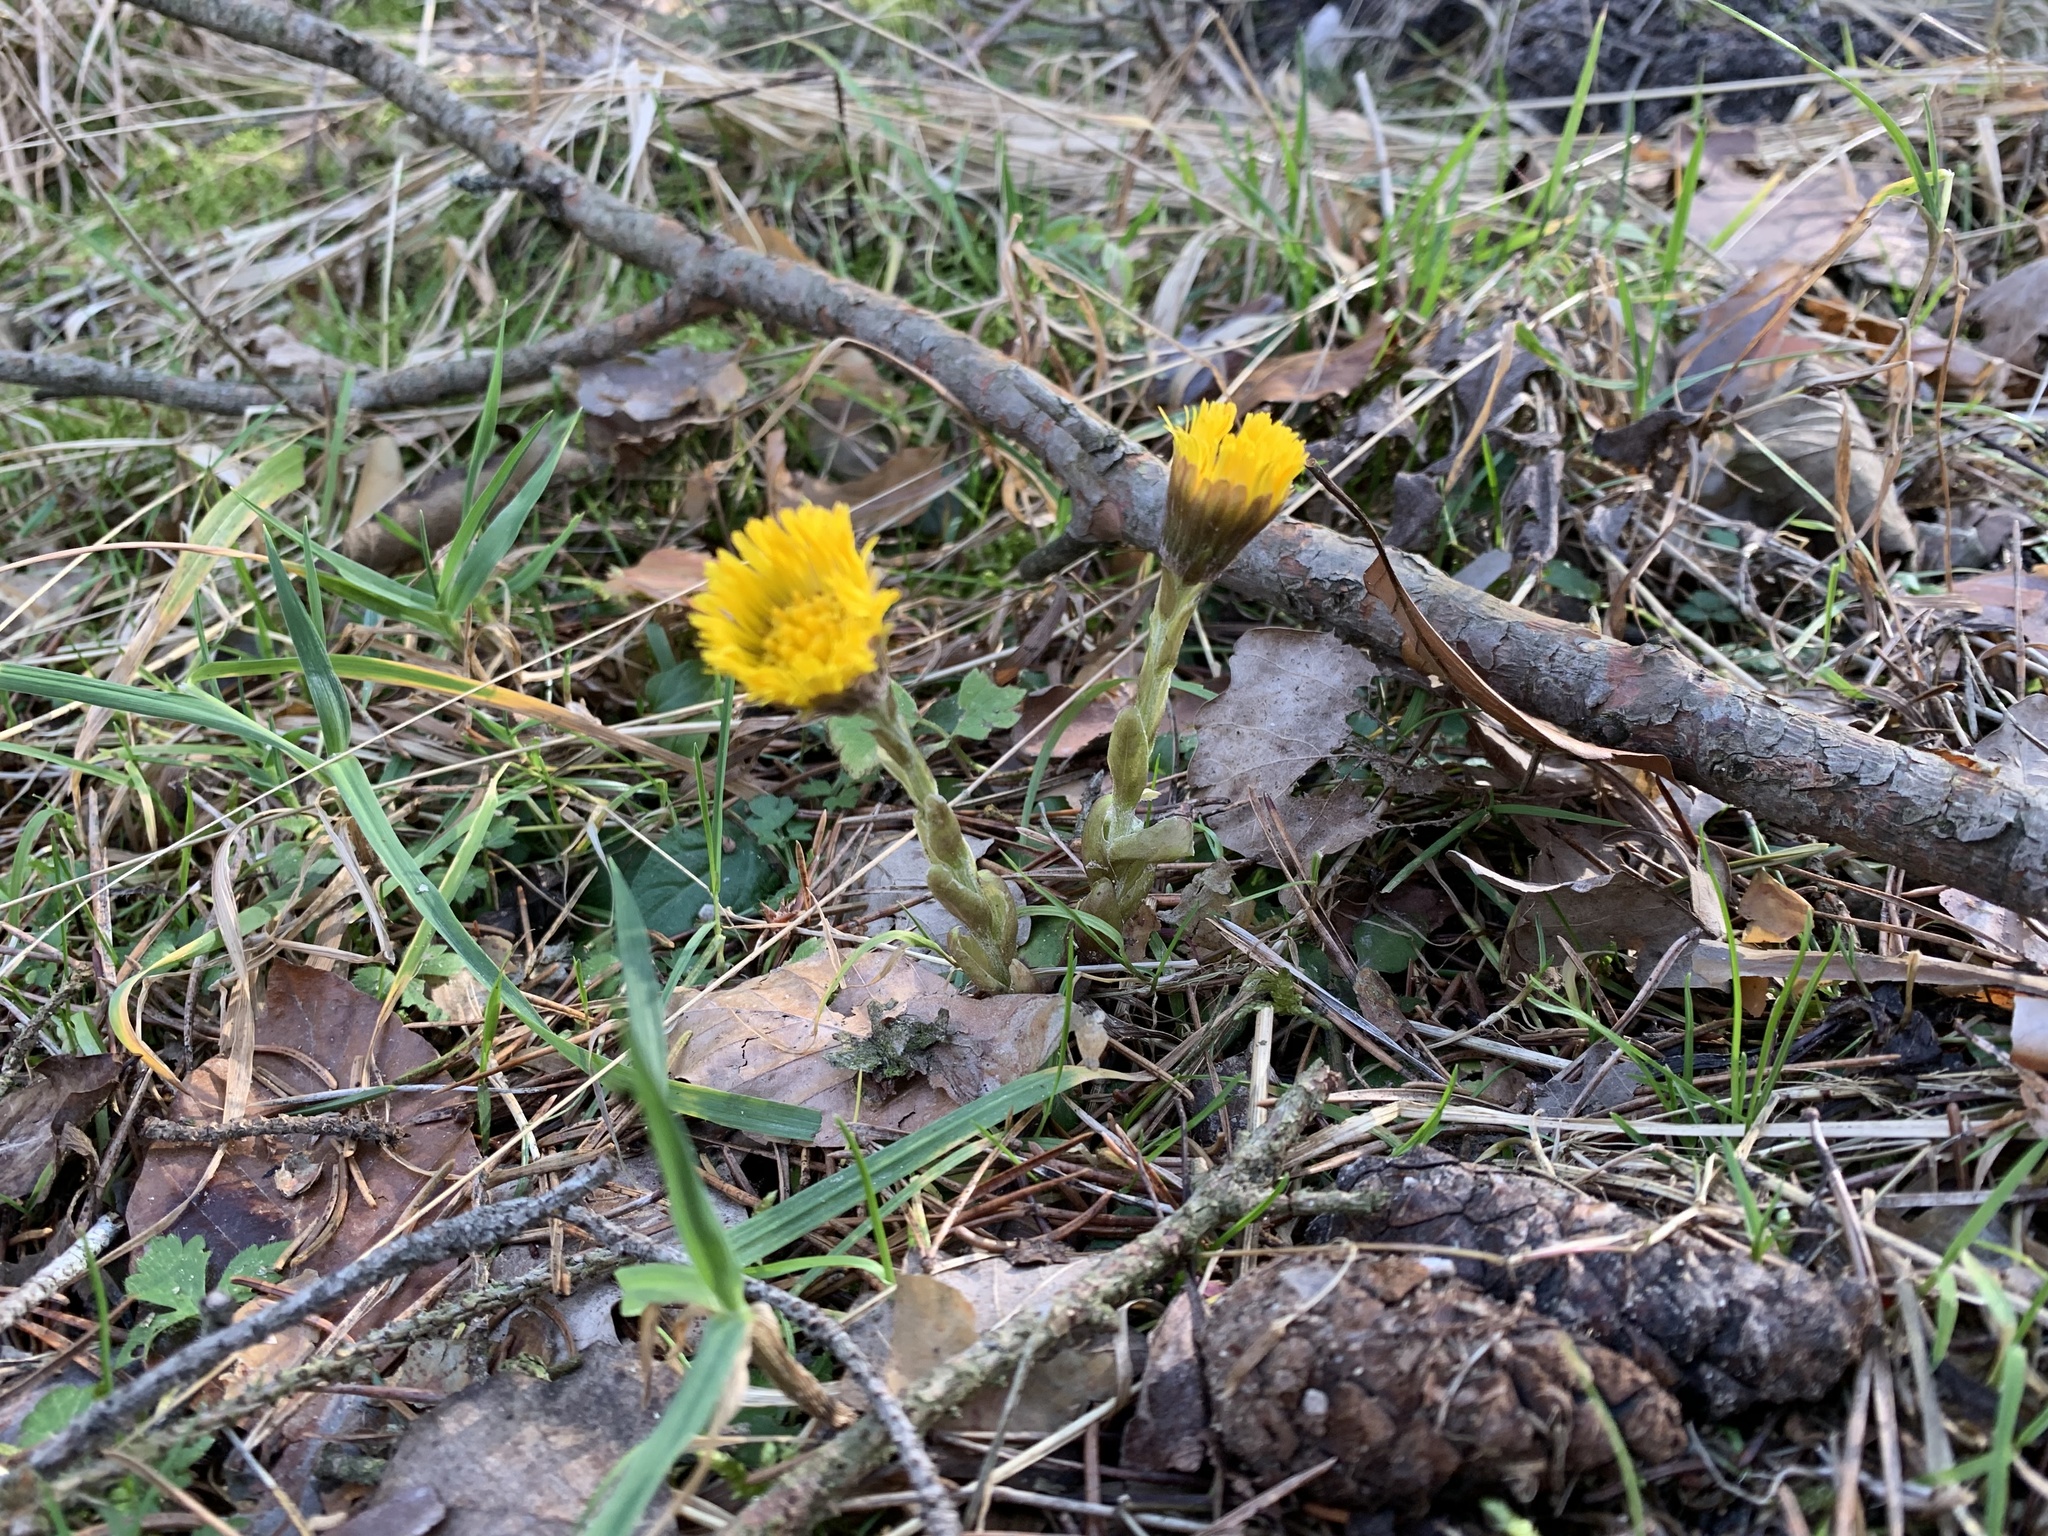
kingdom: Plantae
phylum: Tracheophyta
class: Magnoliopsida
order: Asterales
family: Asteraceae
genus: Tussilago
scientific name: Tussilago farfara
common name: Coltsfoot
